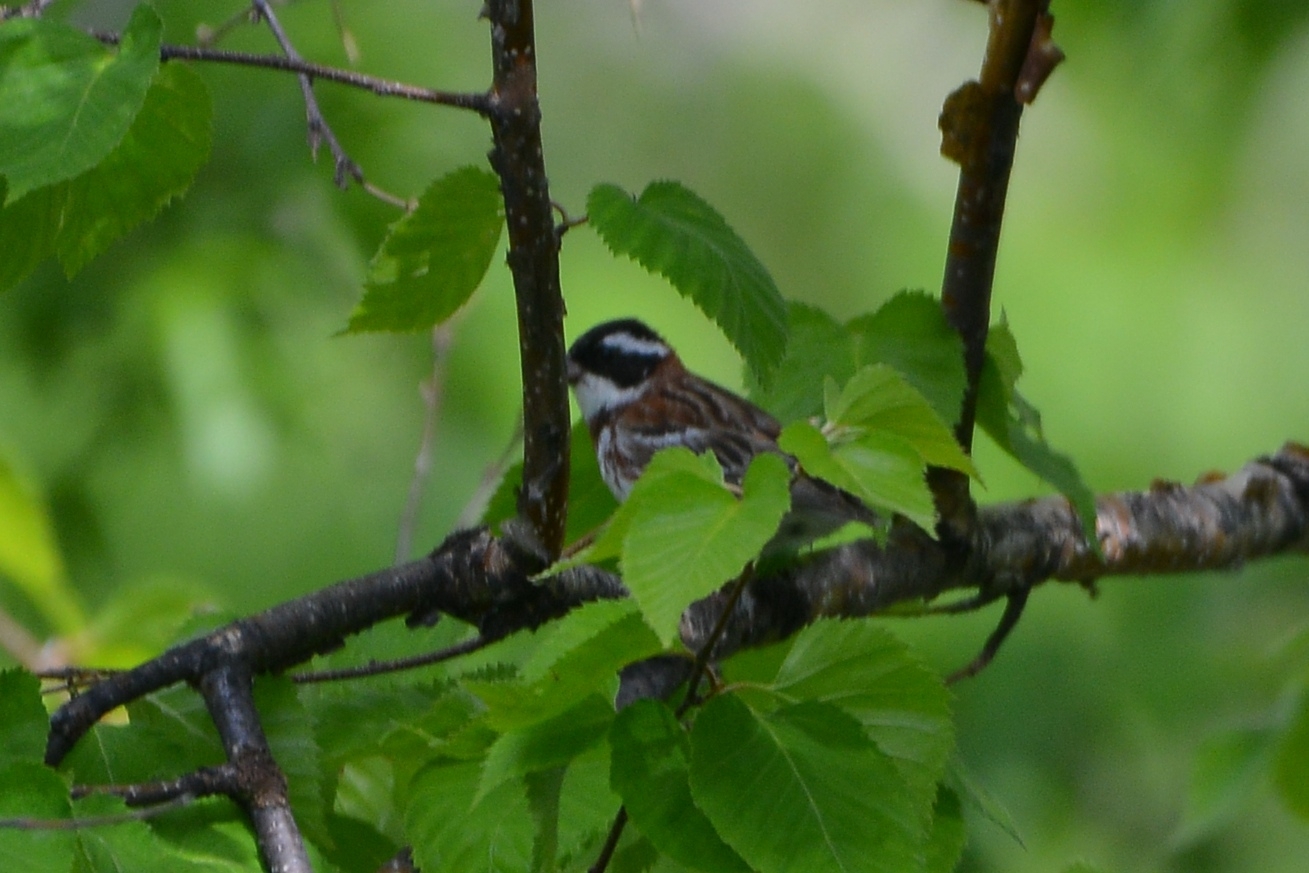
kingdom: Animalia
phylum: Chordata
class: Aves
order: Passeriformes
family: Emberizidae
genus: Emberiza
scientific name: Emberiza rustica
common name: Rustic bunting
